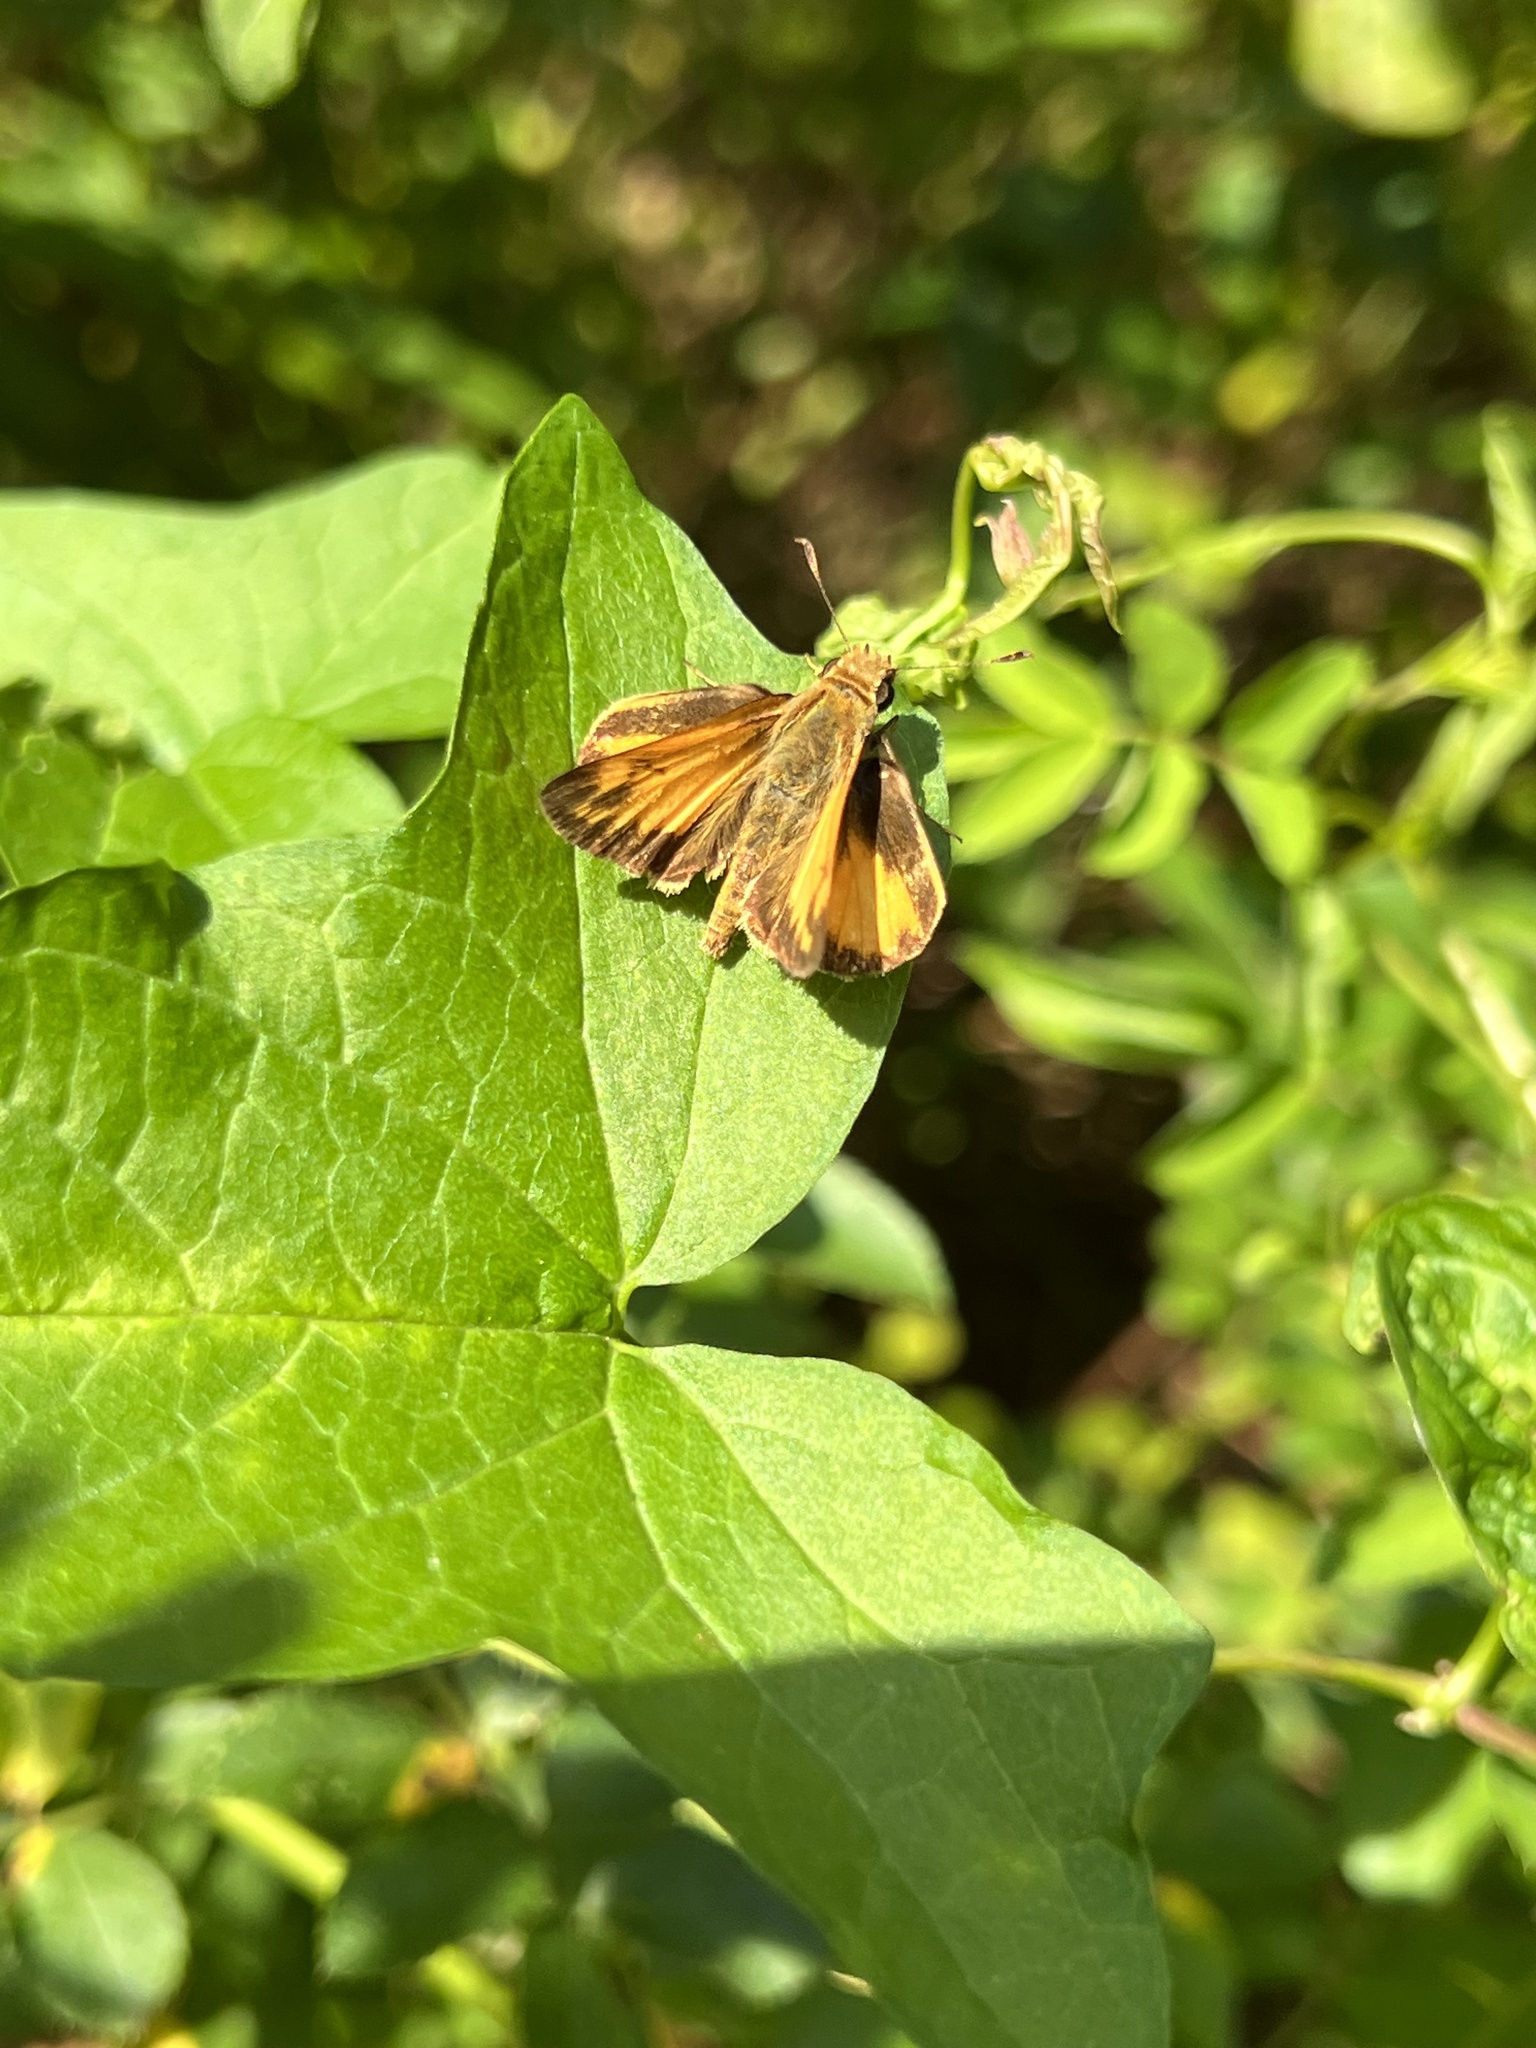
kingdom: Animalia
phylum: Arthropoda
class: Insecta
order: Lepidoptera
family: Hesperiidae
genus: Lon
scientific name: Lon zabulon
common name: Zabulon skipper
